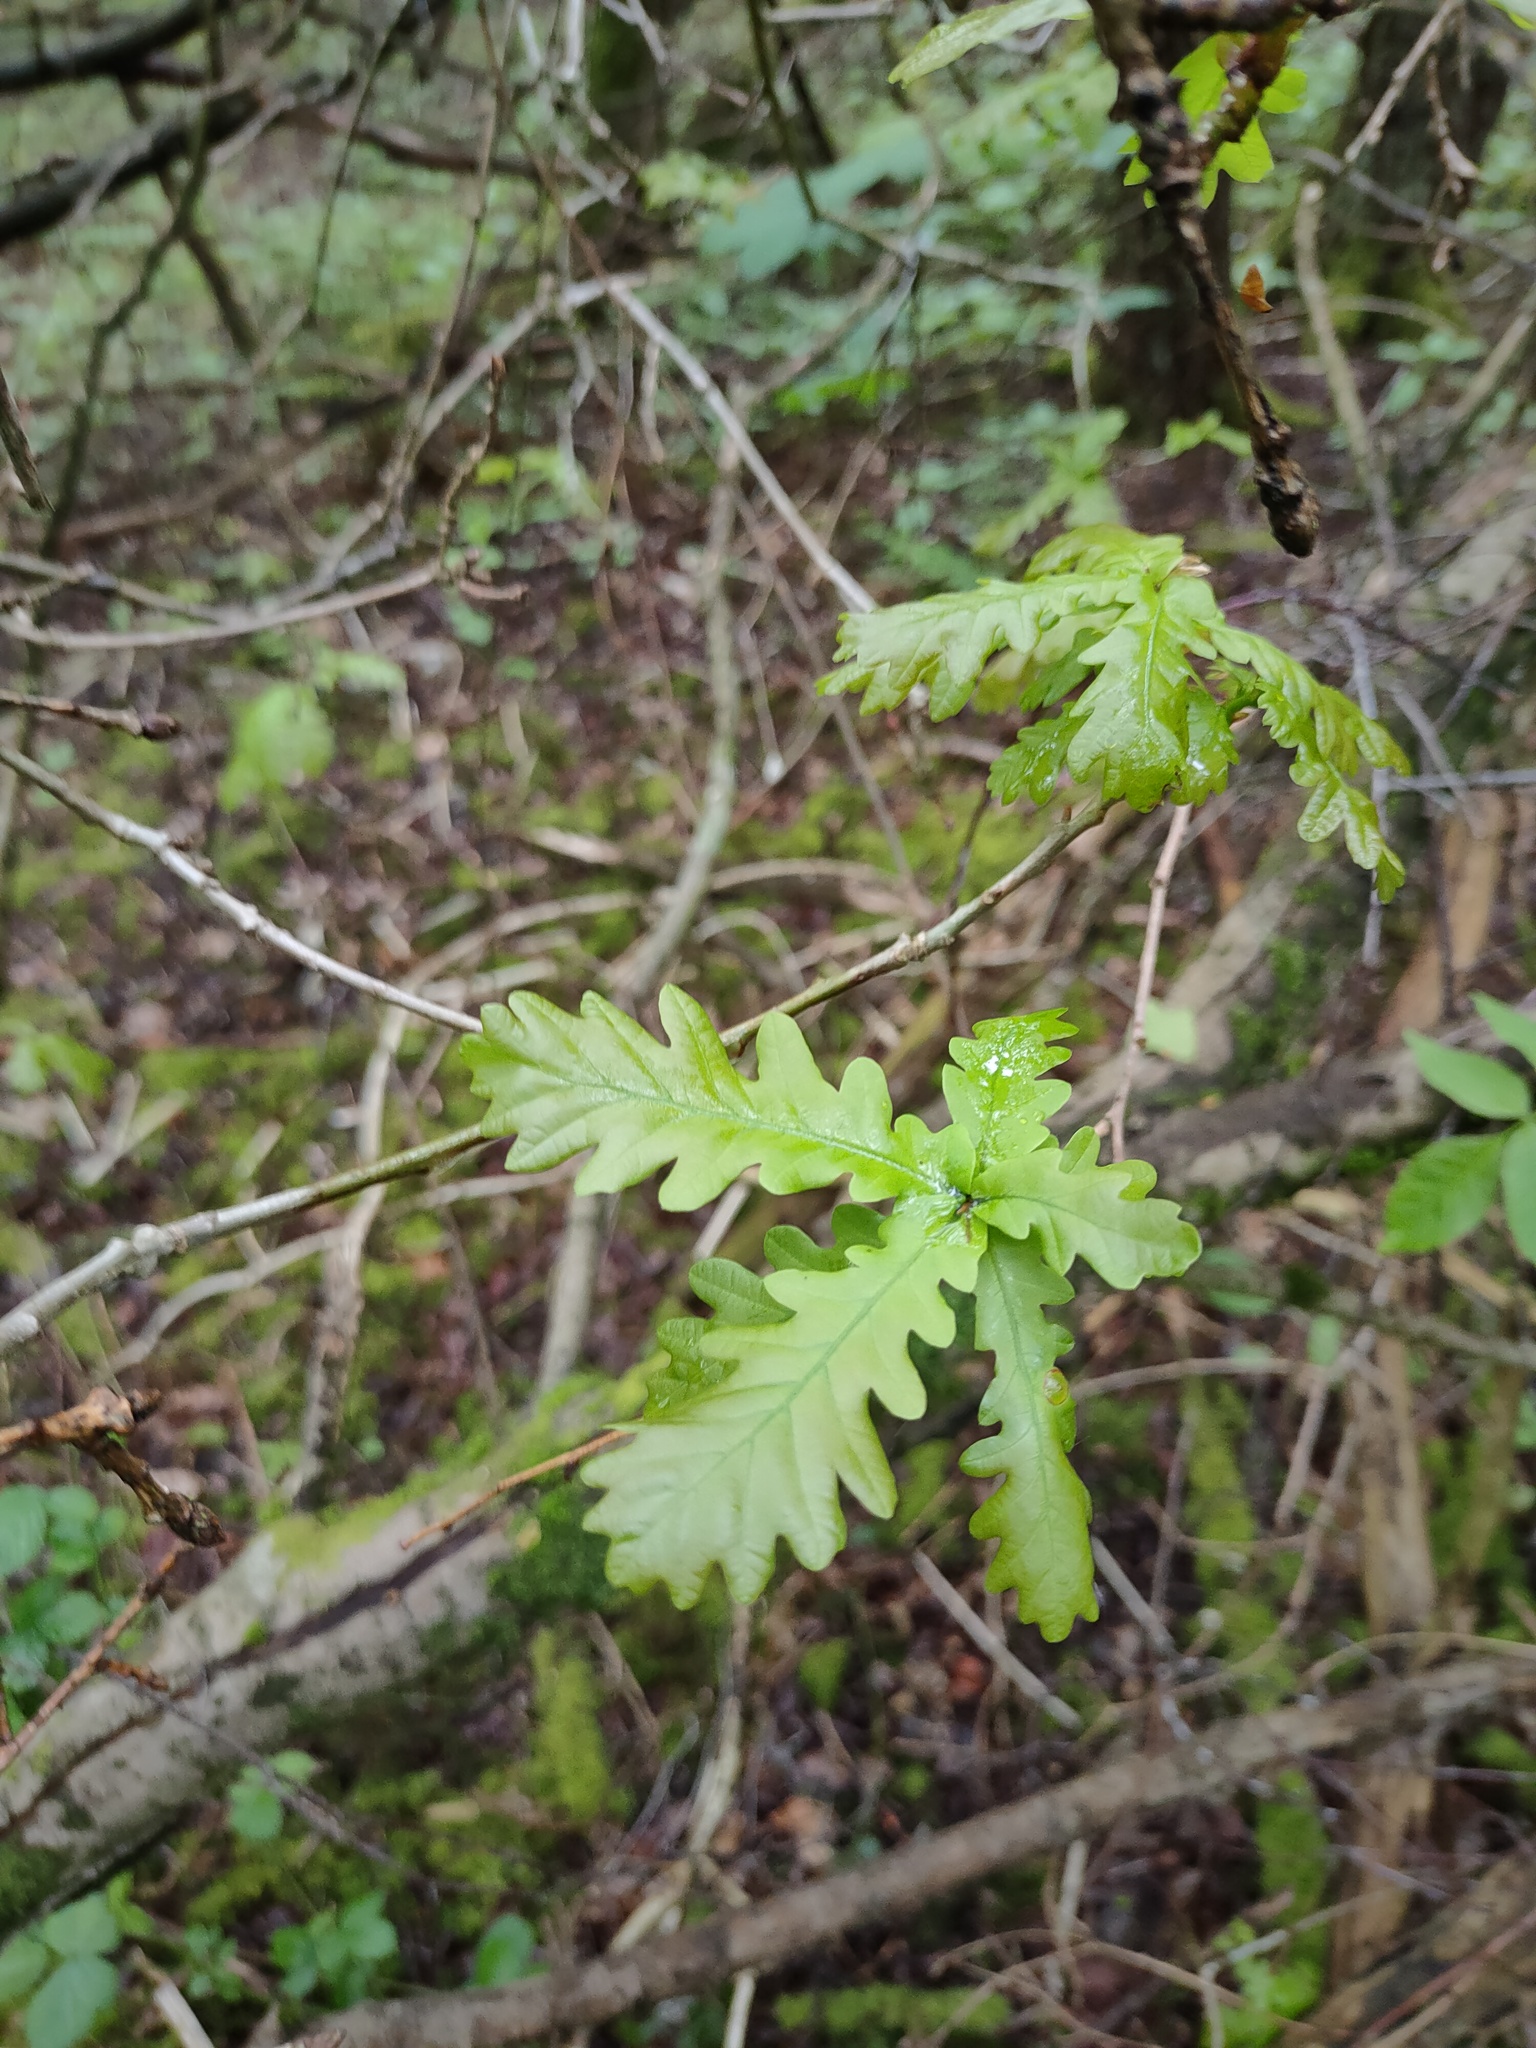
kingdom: Plantae
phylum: Tracheophyta
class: Magnoliopsida
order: Fagales
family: Fagaceae
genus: Quercus
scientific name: Quercus robur
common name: Pedunculate oak
